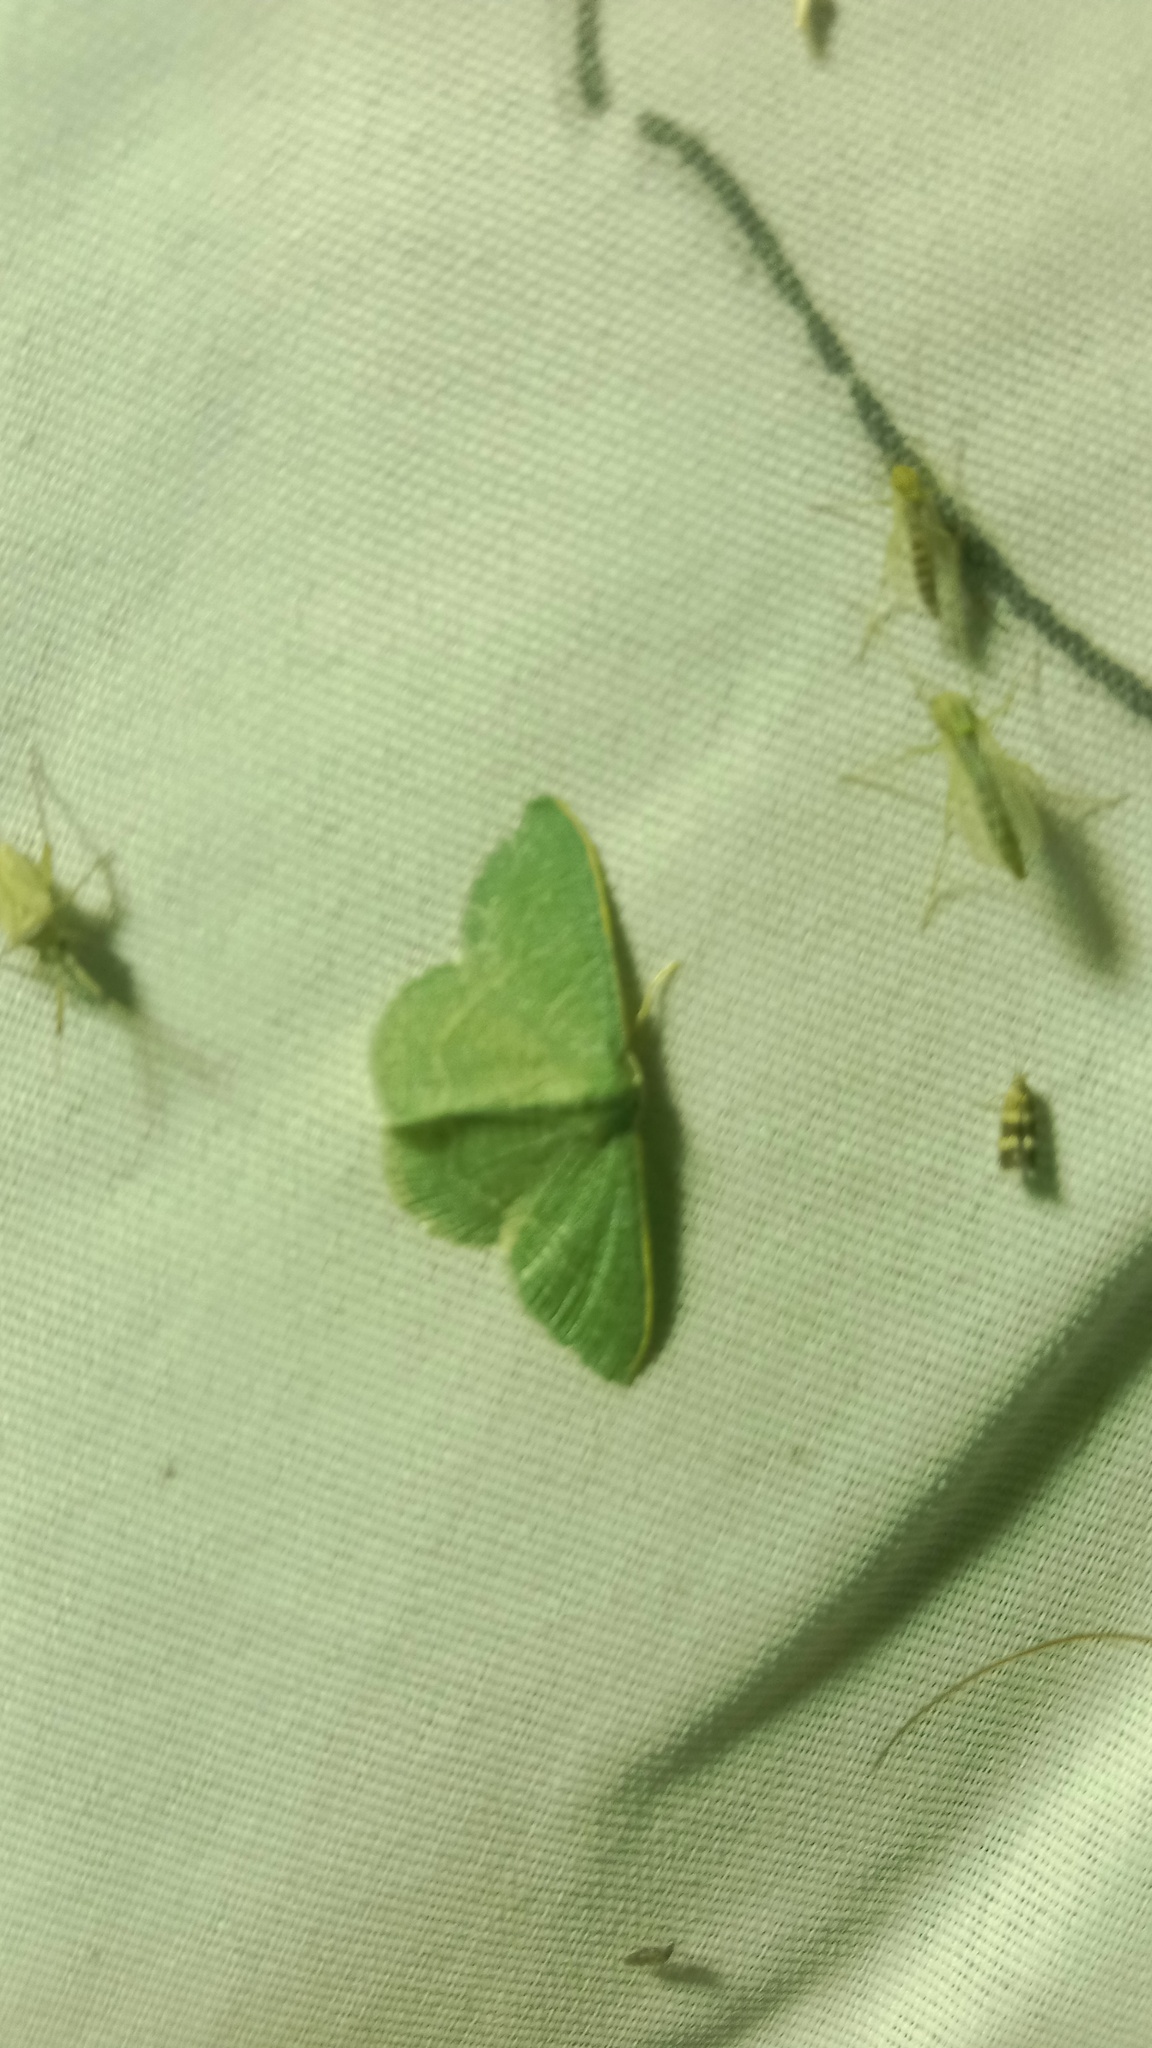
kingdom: Animalia
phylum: Arthropoda
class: Insecta
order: Lepidoptera
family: Geometridae
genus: Chlorissa
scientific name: Chlorissa etruscaria
